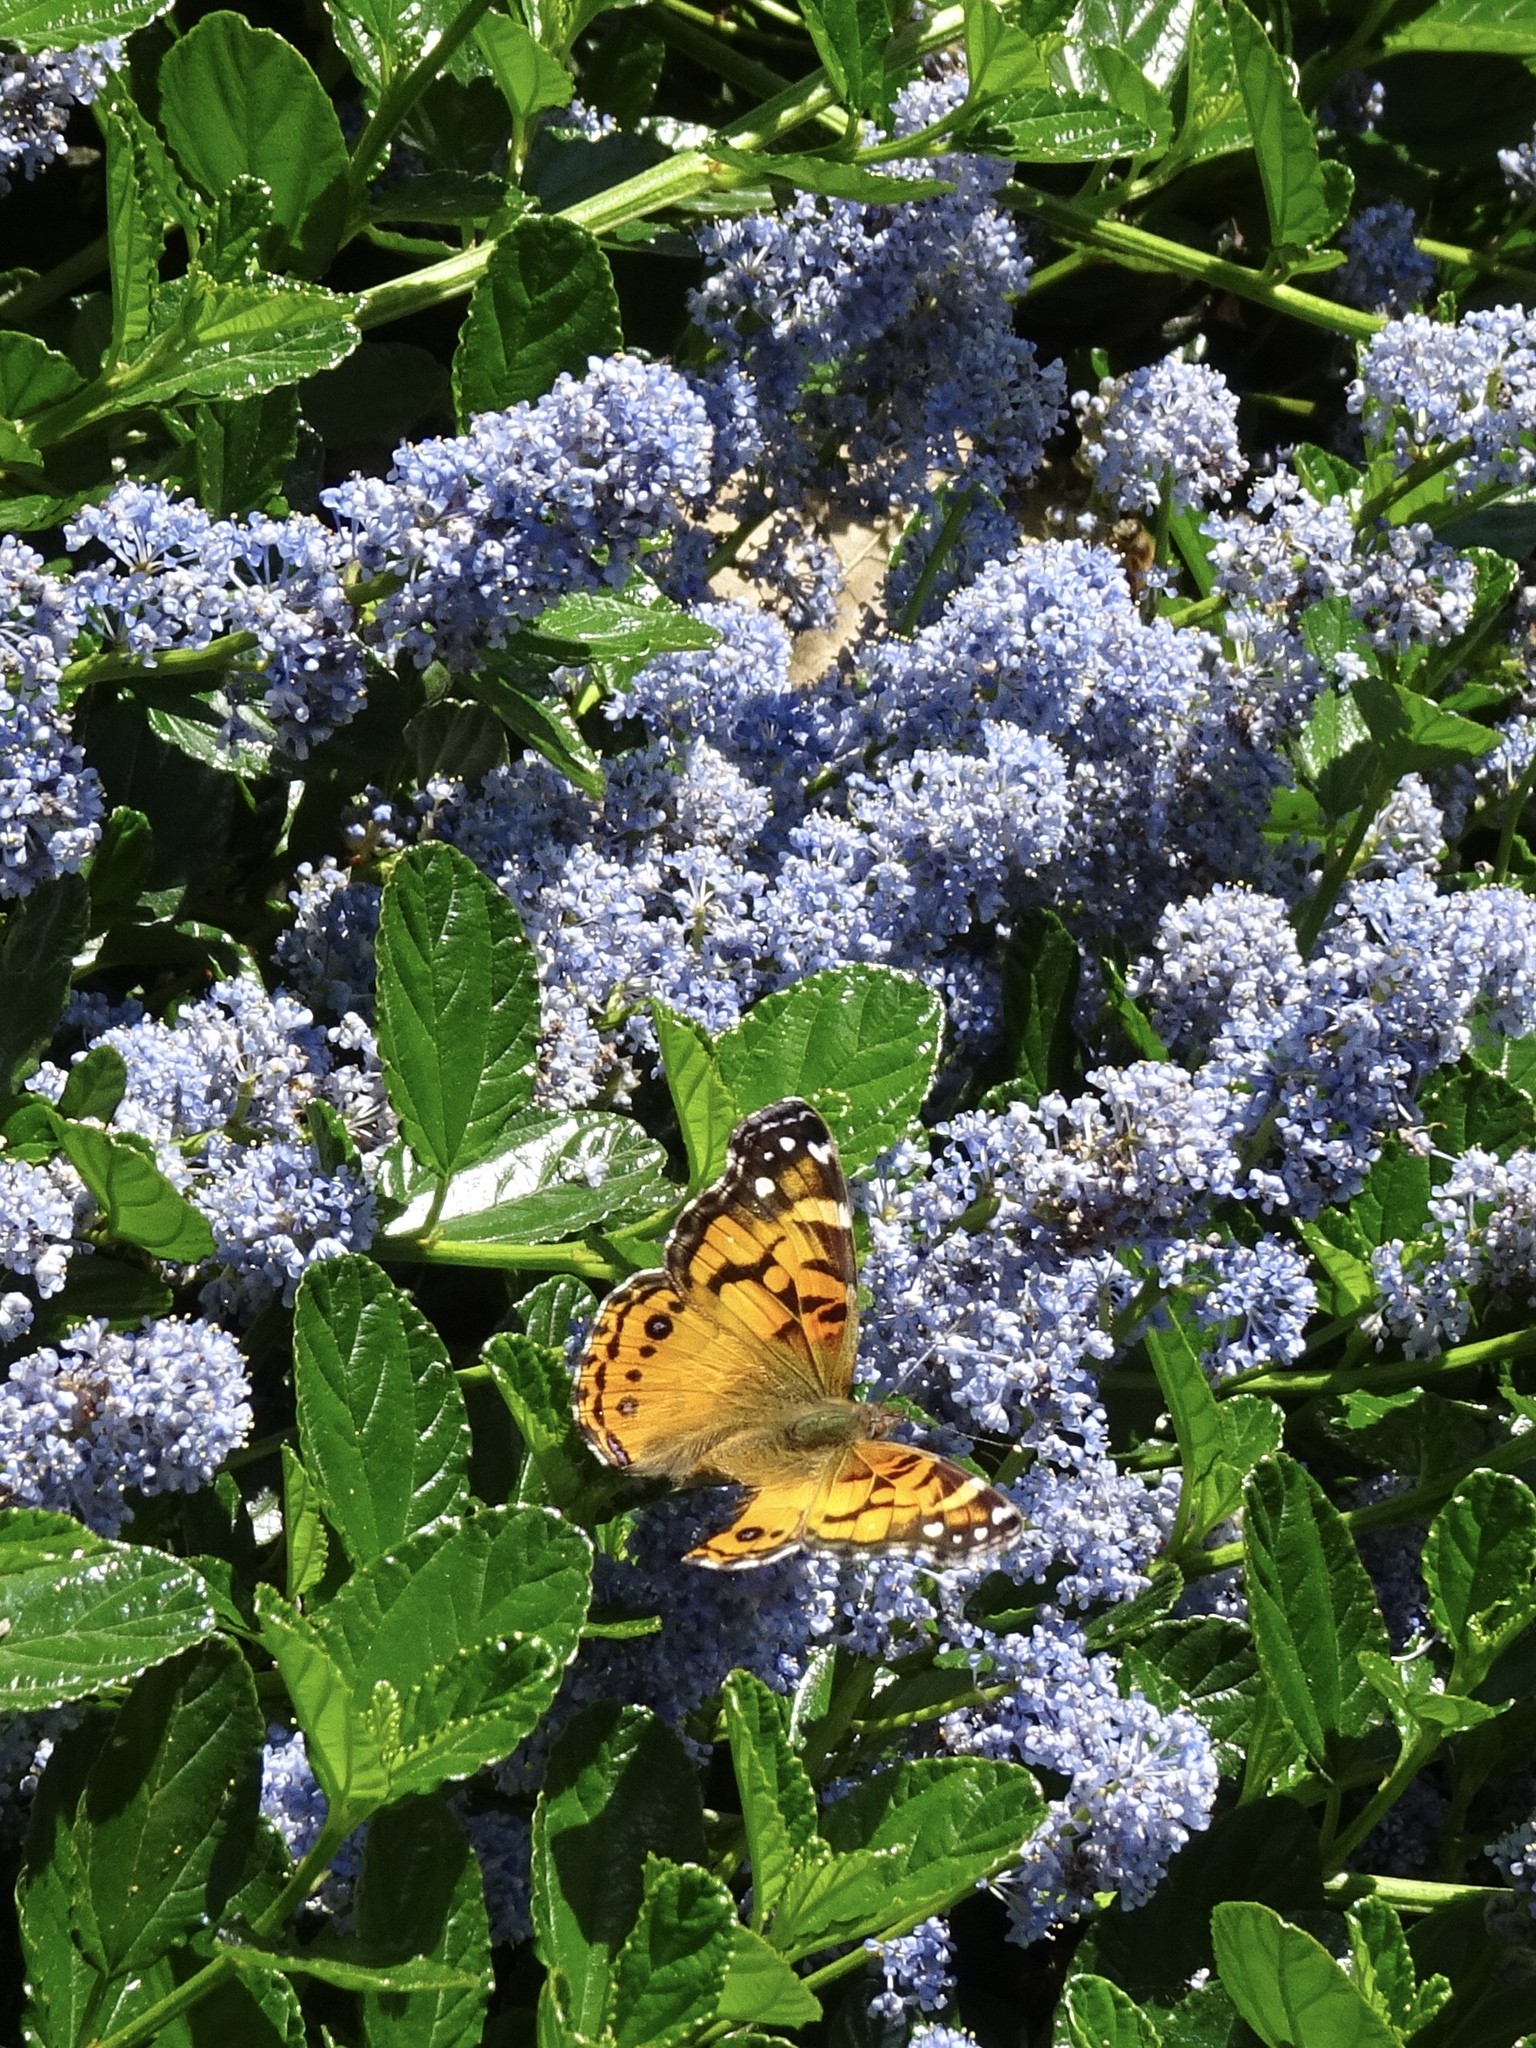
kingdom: Animalia
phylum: Arthropoda
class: Insecta
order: Lepidoptera
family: Nymphalidae
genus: Vanessa
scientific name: Vanessa virginiensis
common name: American lady
